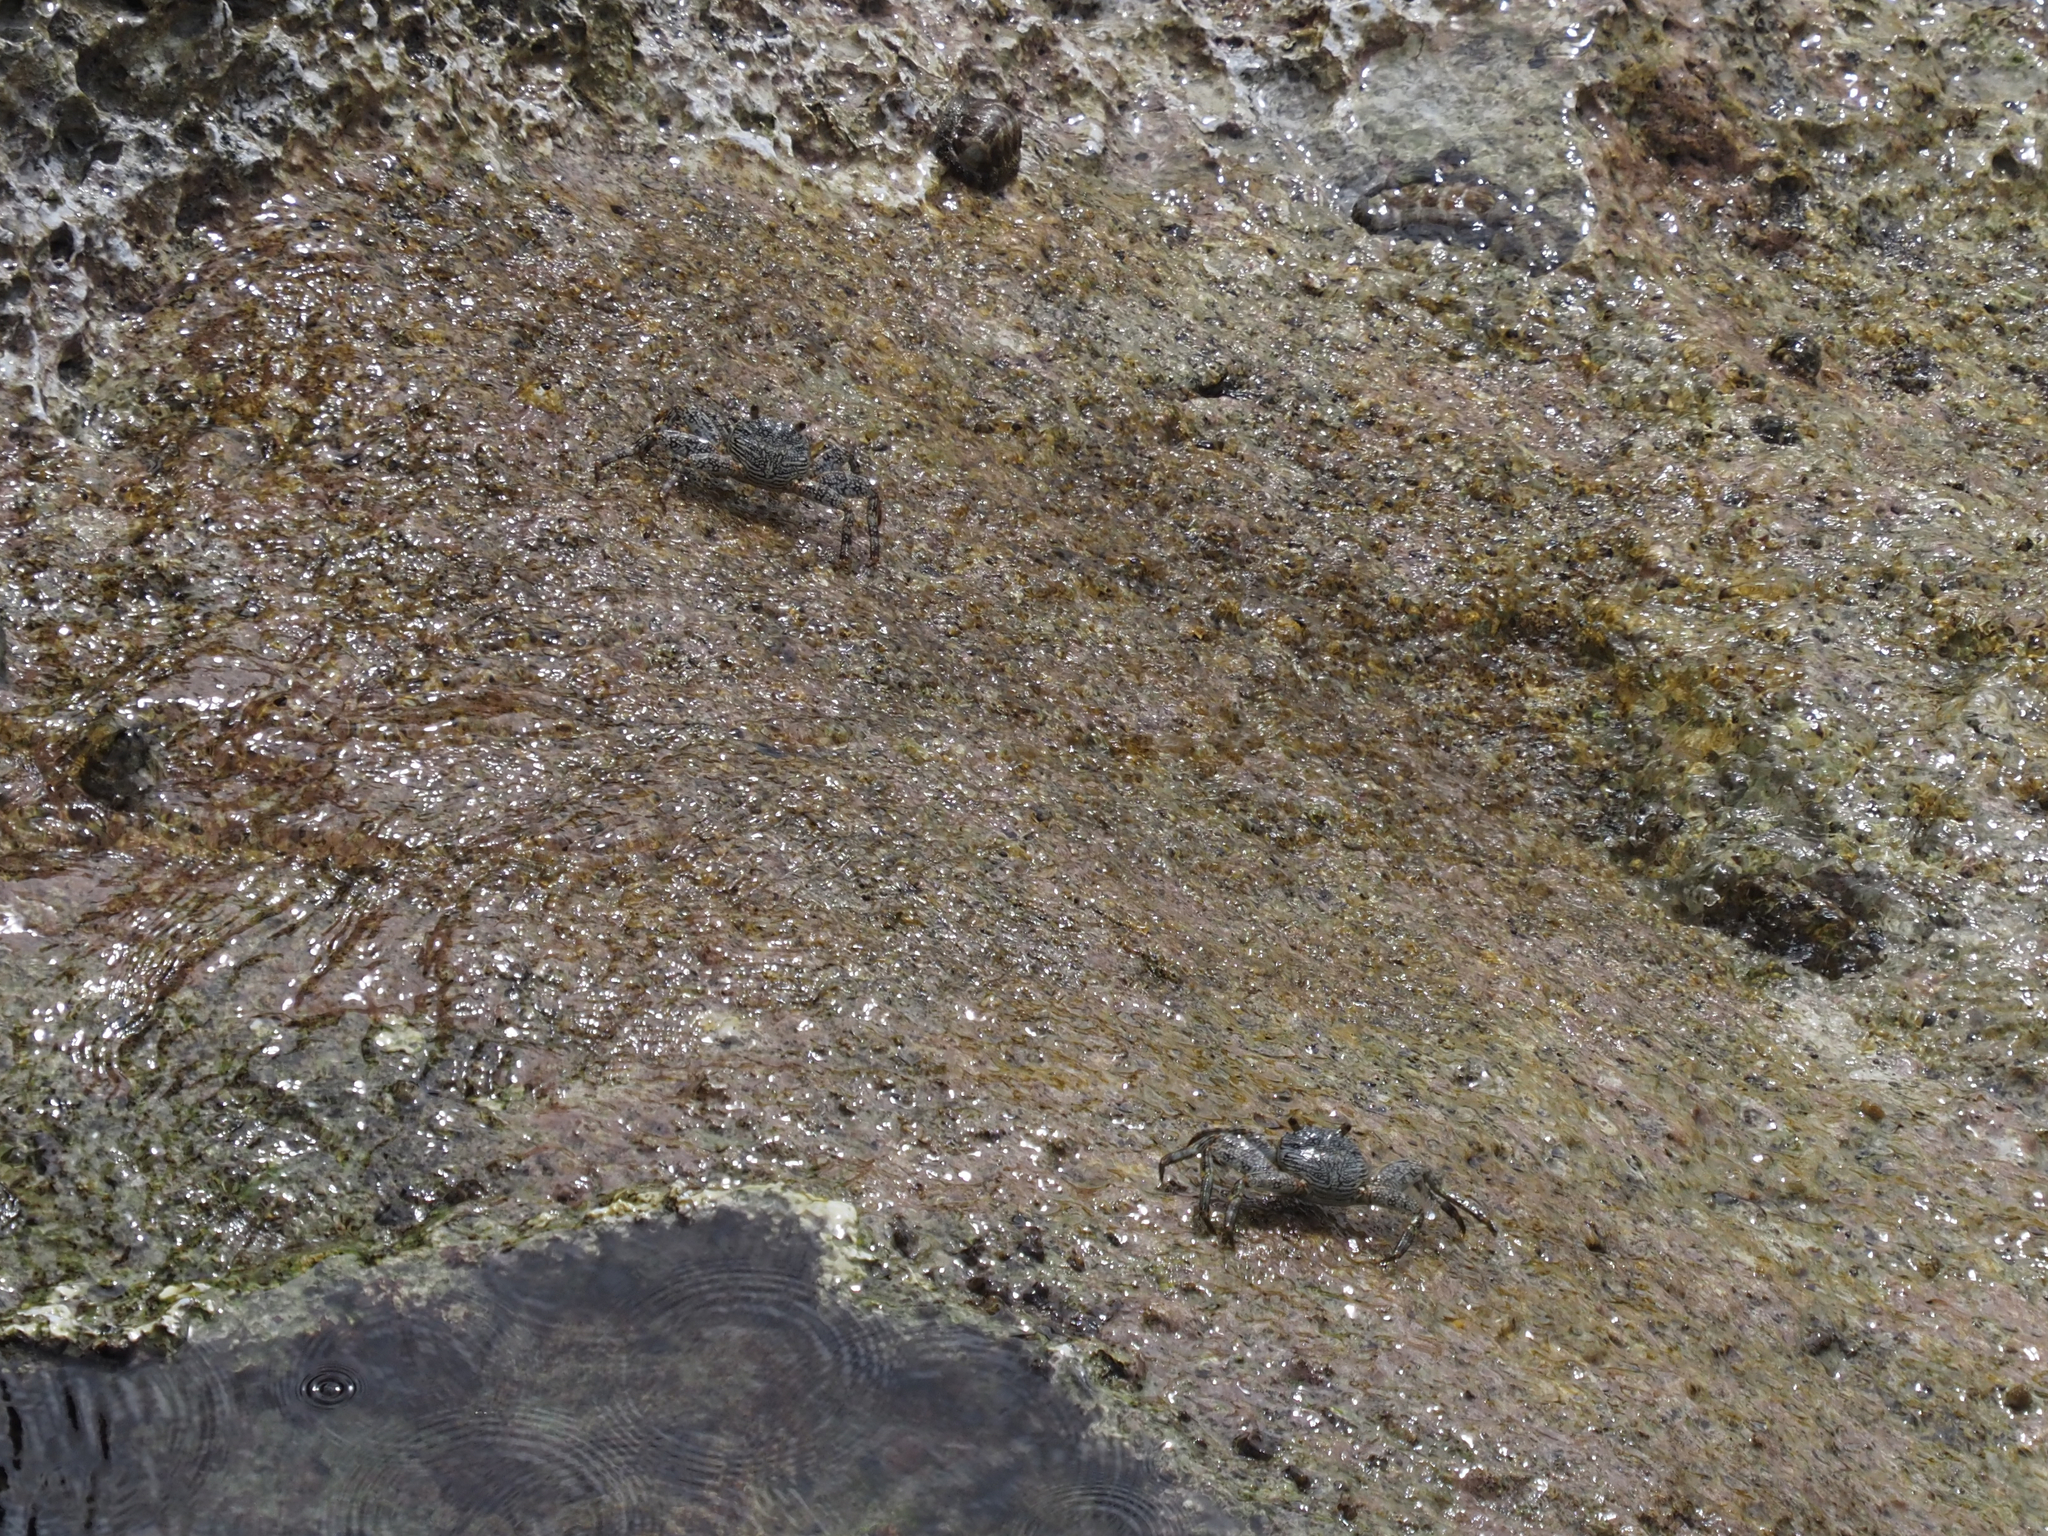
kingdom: Animalia
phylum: Arthropoda
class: Malacostraca
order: Decapoda
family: Grapsidae
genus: Grapsus
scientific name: Grapsus grapsus
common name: Sally lightfoot
